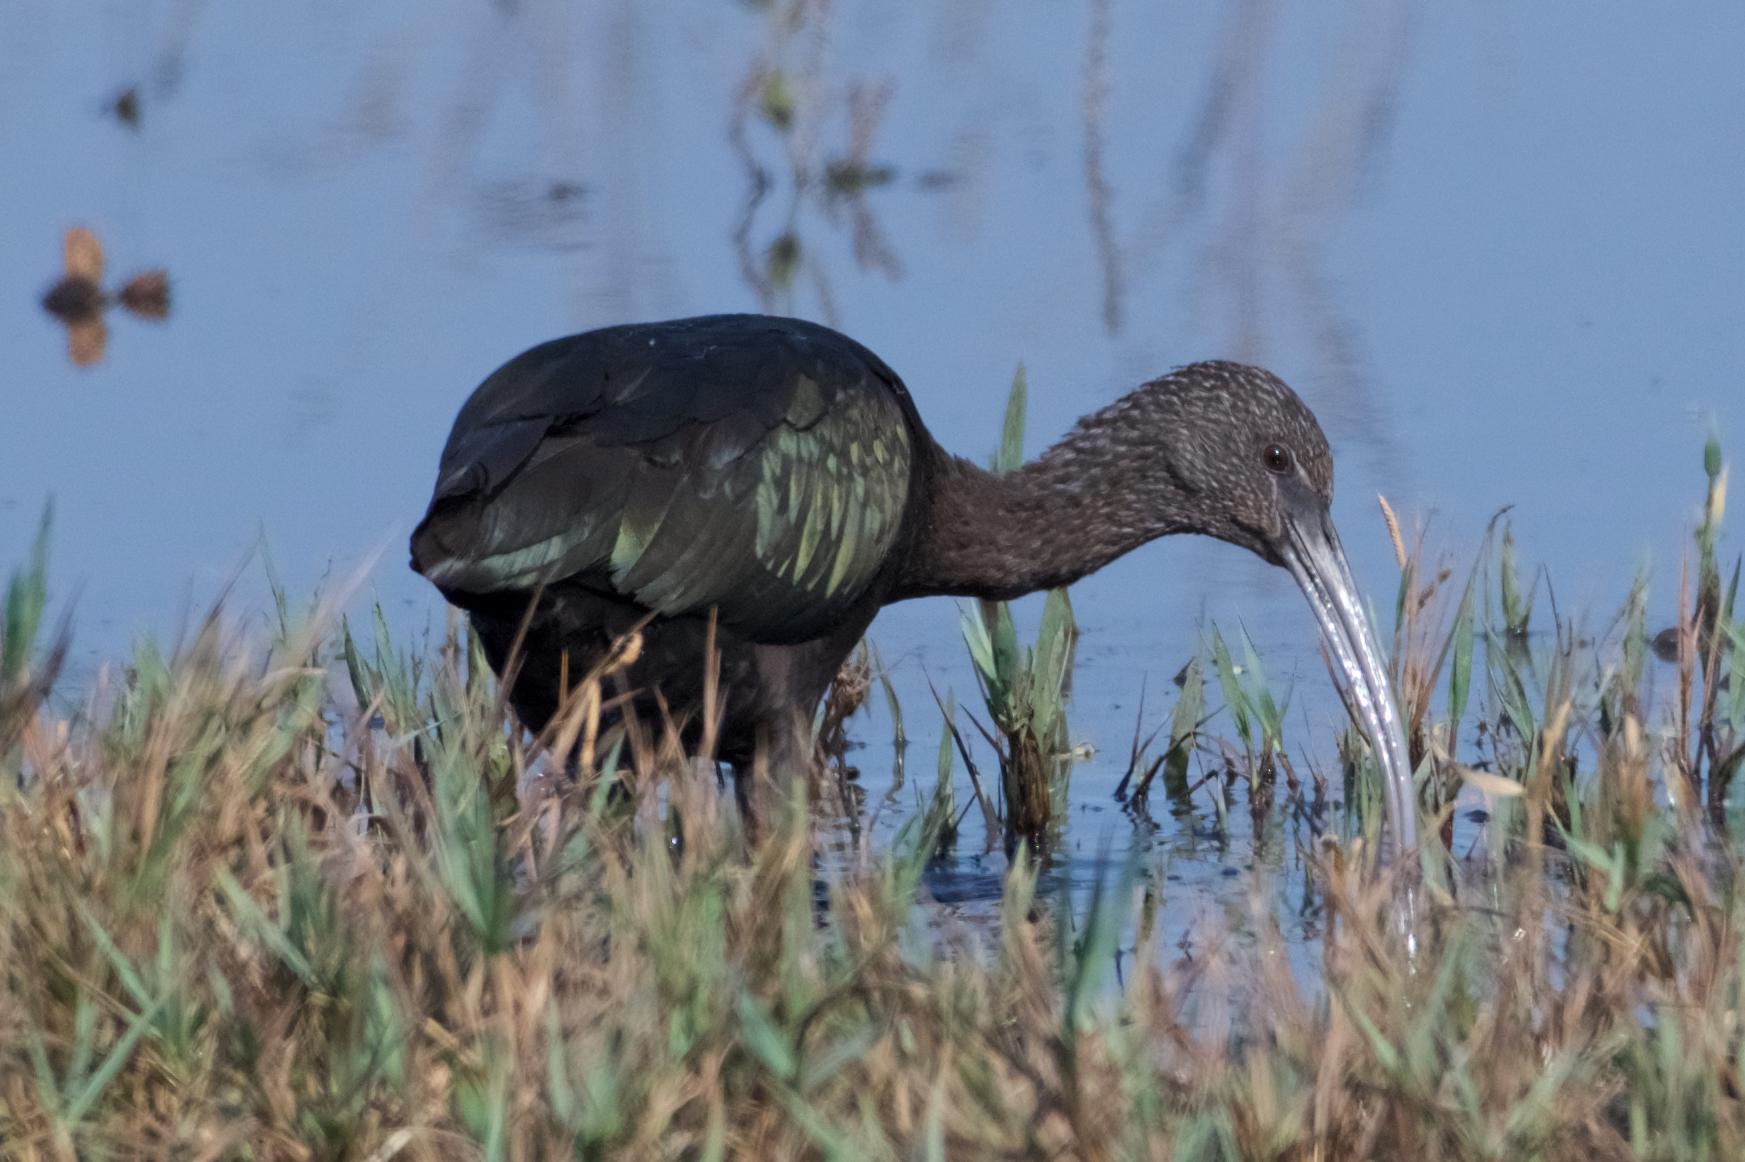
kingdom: Animalia
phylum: Chordata
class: Aves
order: Pelecaniformes
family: Threskiornithidae
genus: Plegadis
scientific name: Plegadis chihi
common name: White-faced ibis
